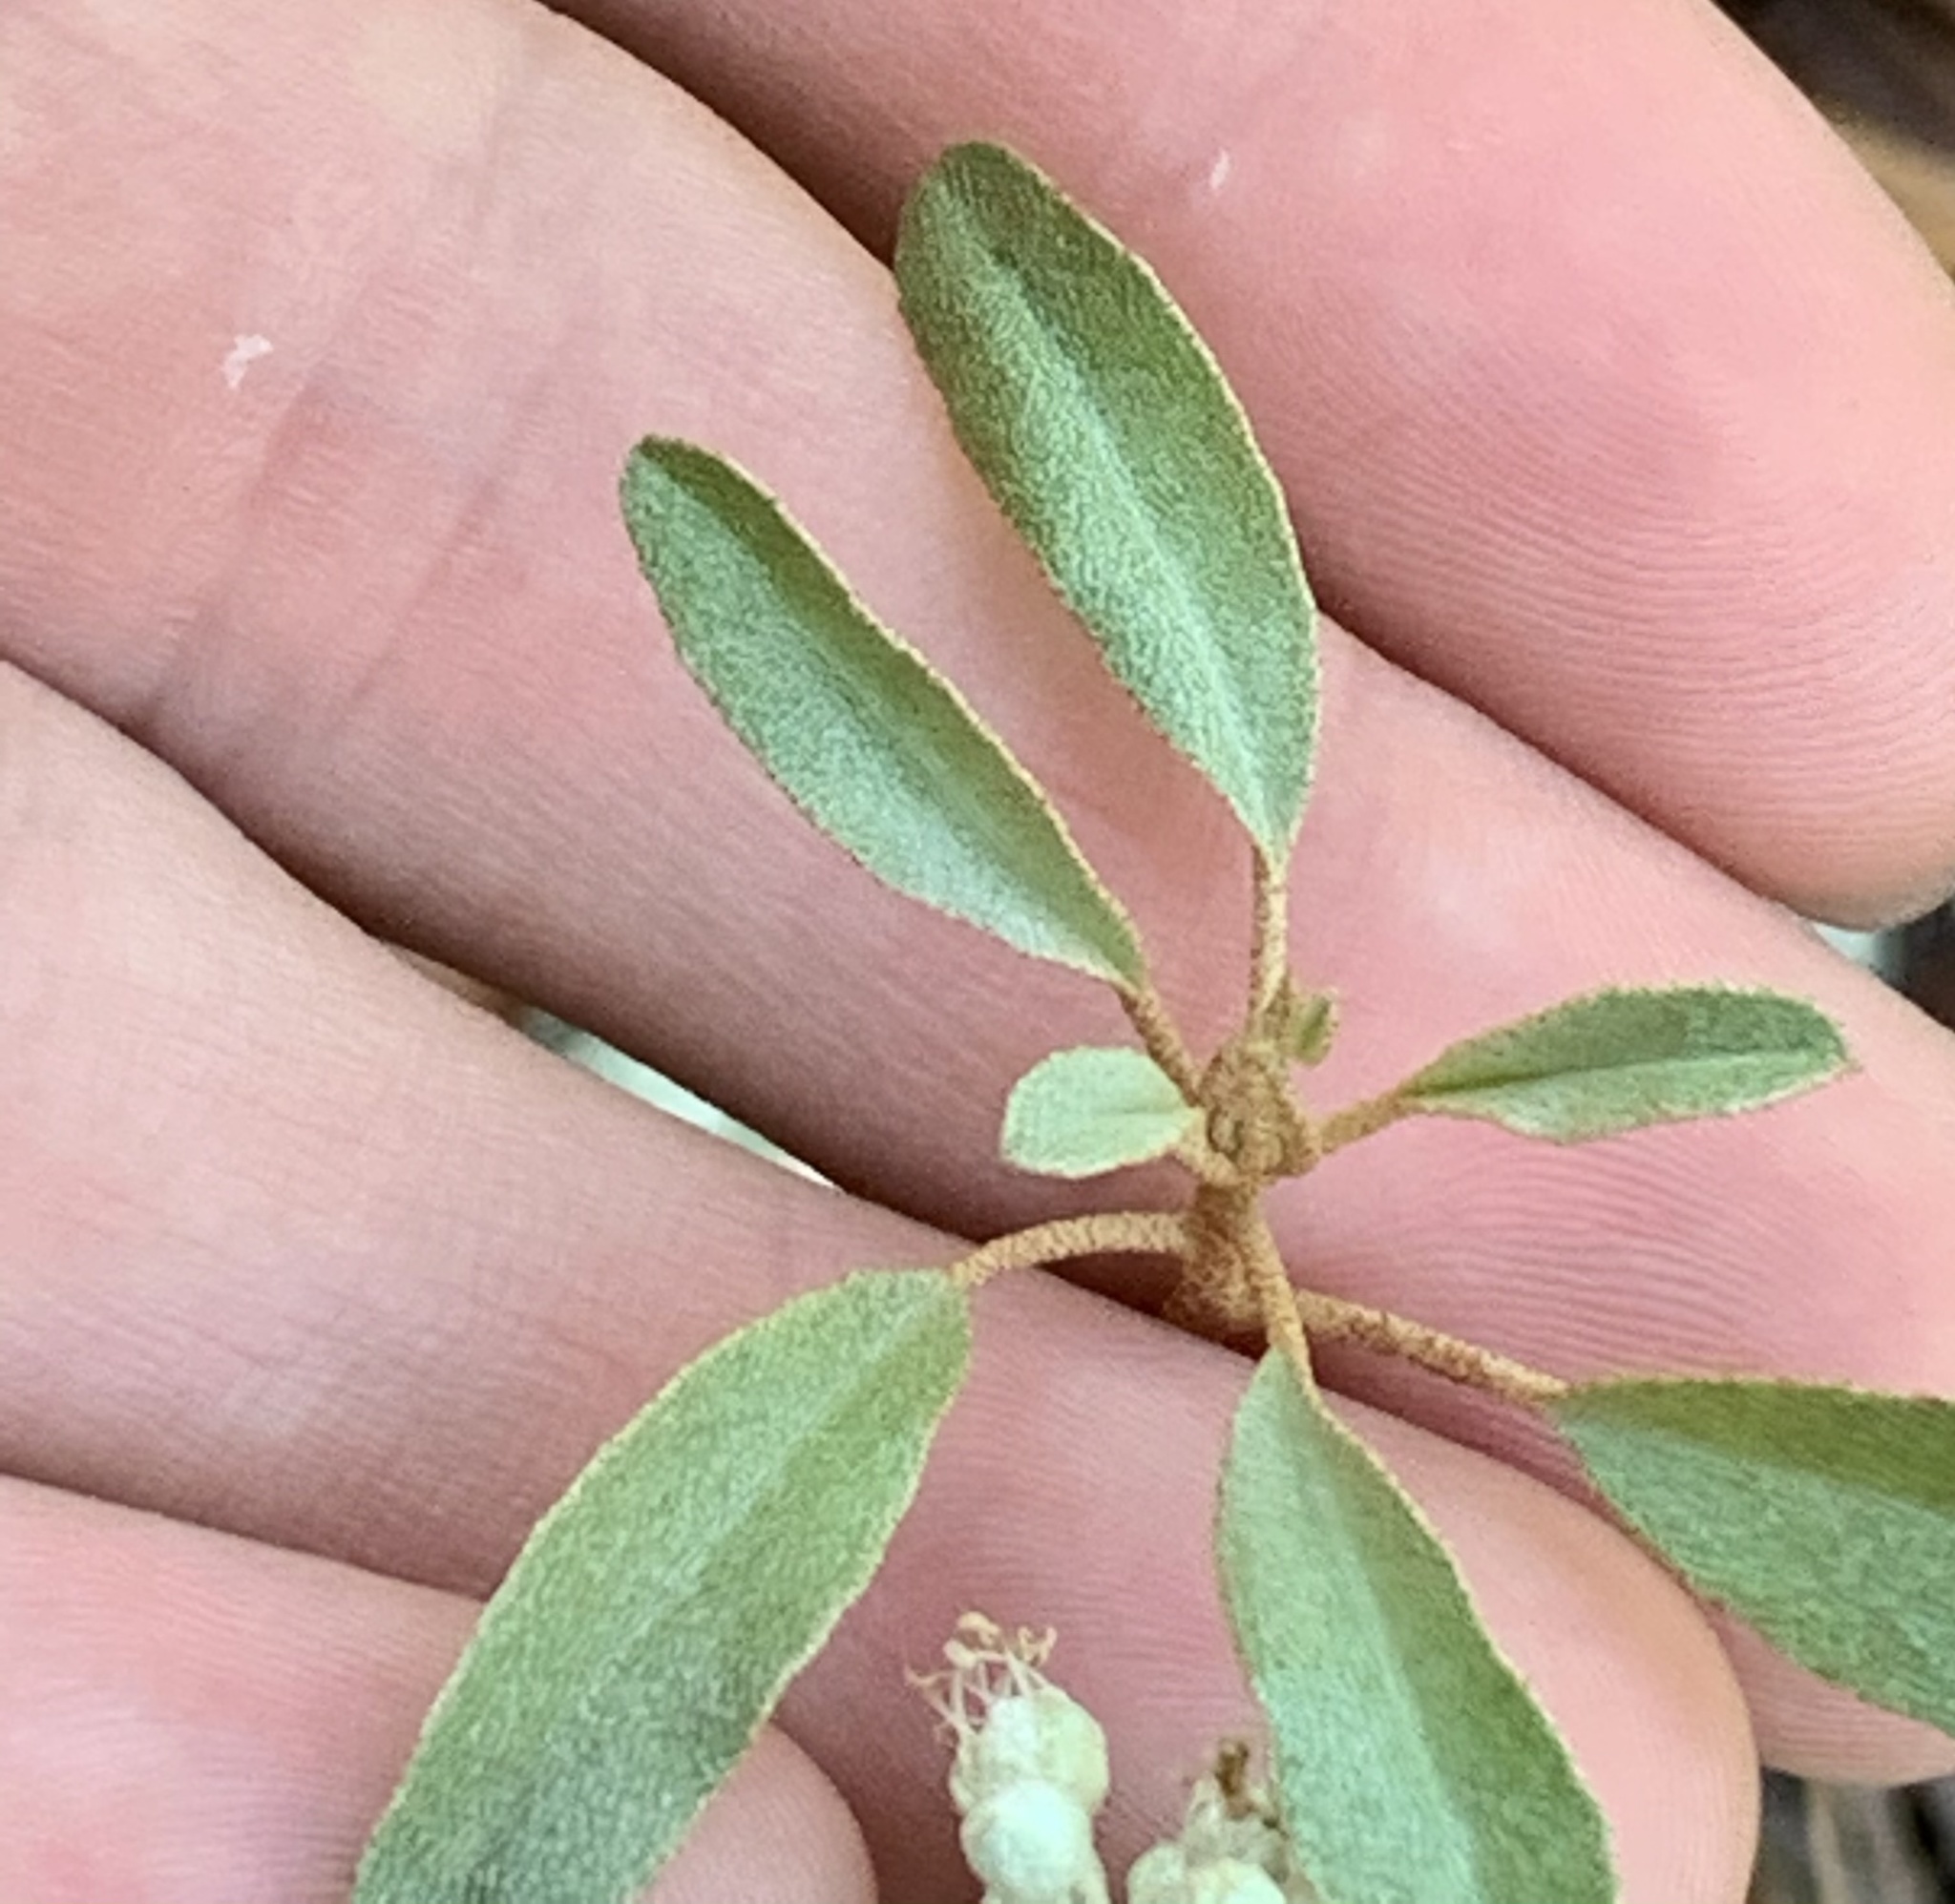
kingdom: Plantae
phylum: Tracheophyta
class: Magnoliopsida
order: Malpighiales
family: Euphorbiaceae
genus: Croton
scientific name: Croton argyranthemus
